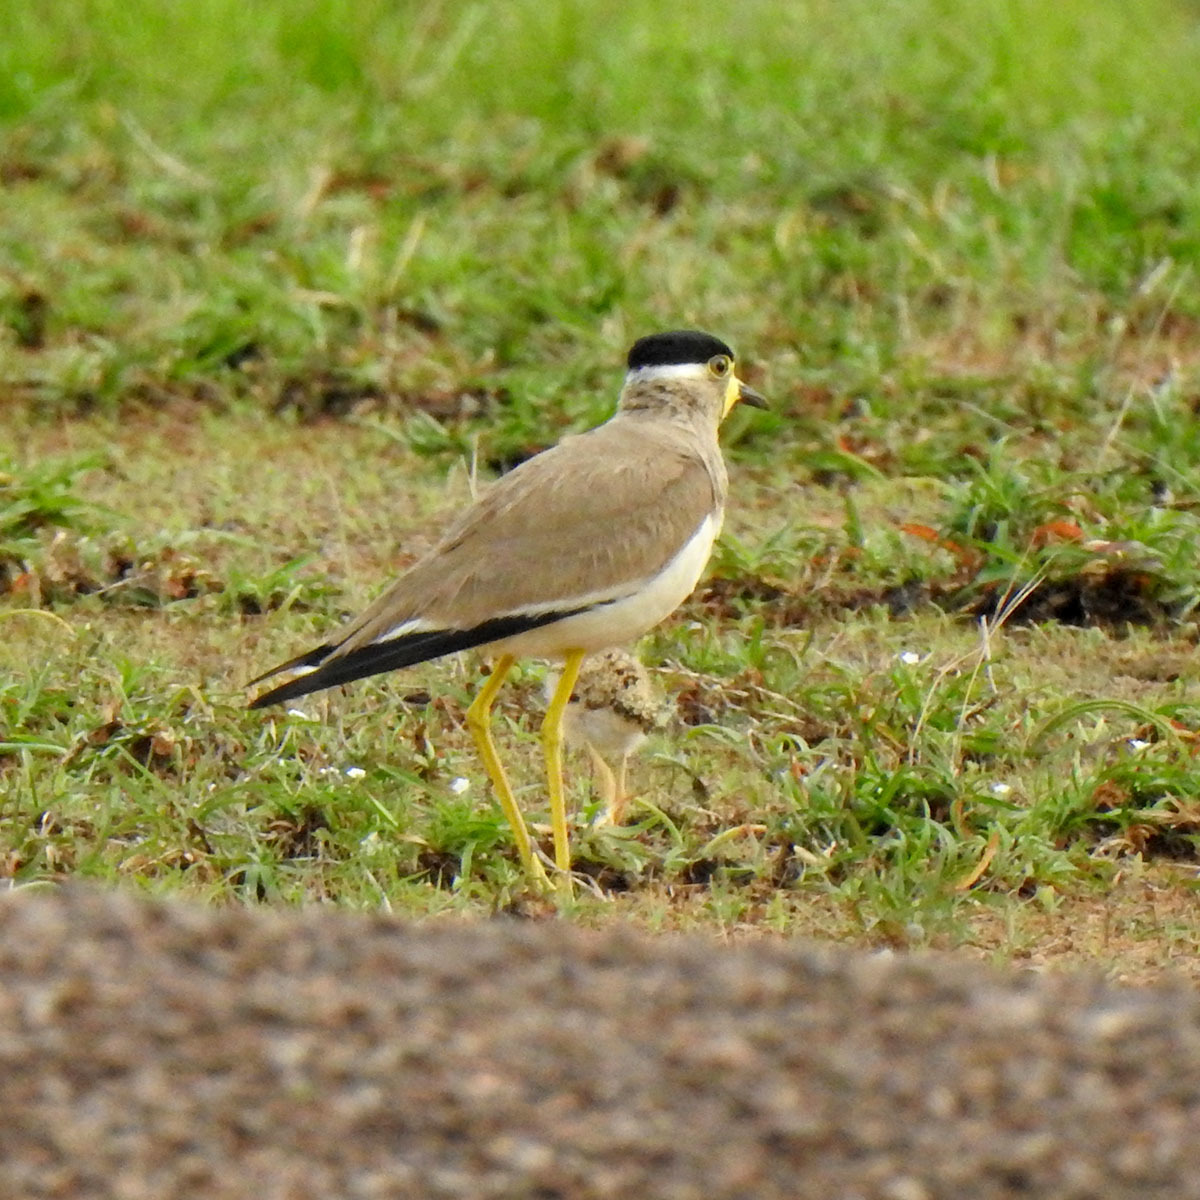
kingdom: Animalia
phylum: Chordata
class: Aves
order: Charadriiformes
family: Charadriidae
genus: Vanellus
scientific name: Vanellus malabaricus
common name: Yellow-wattled lapwing
